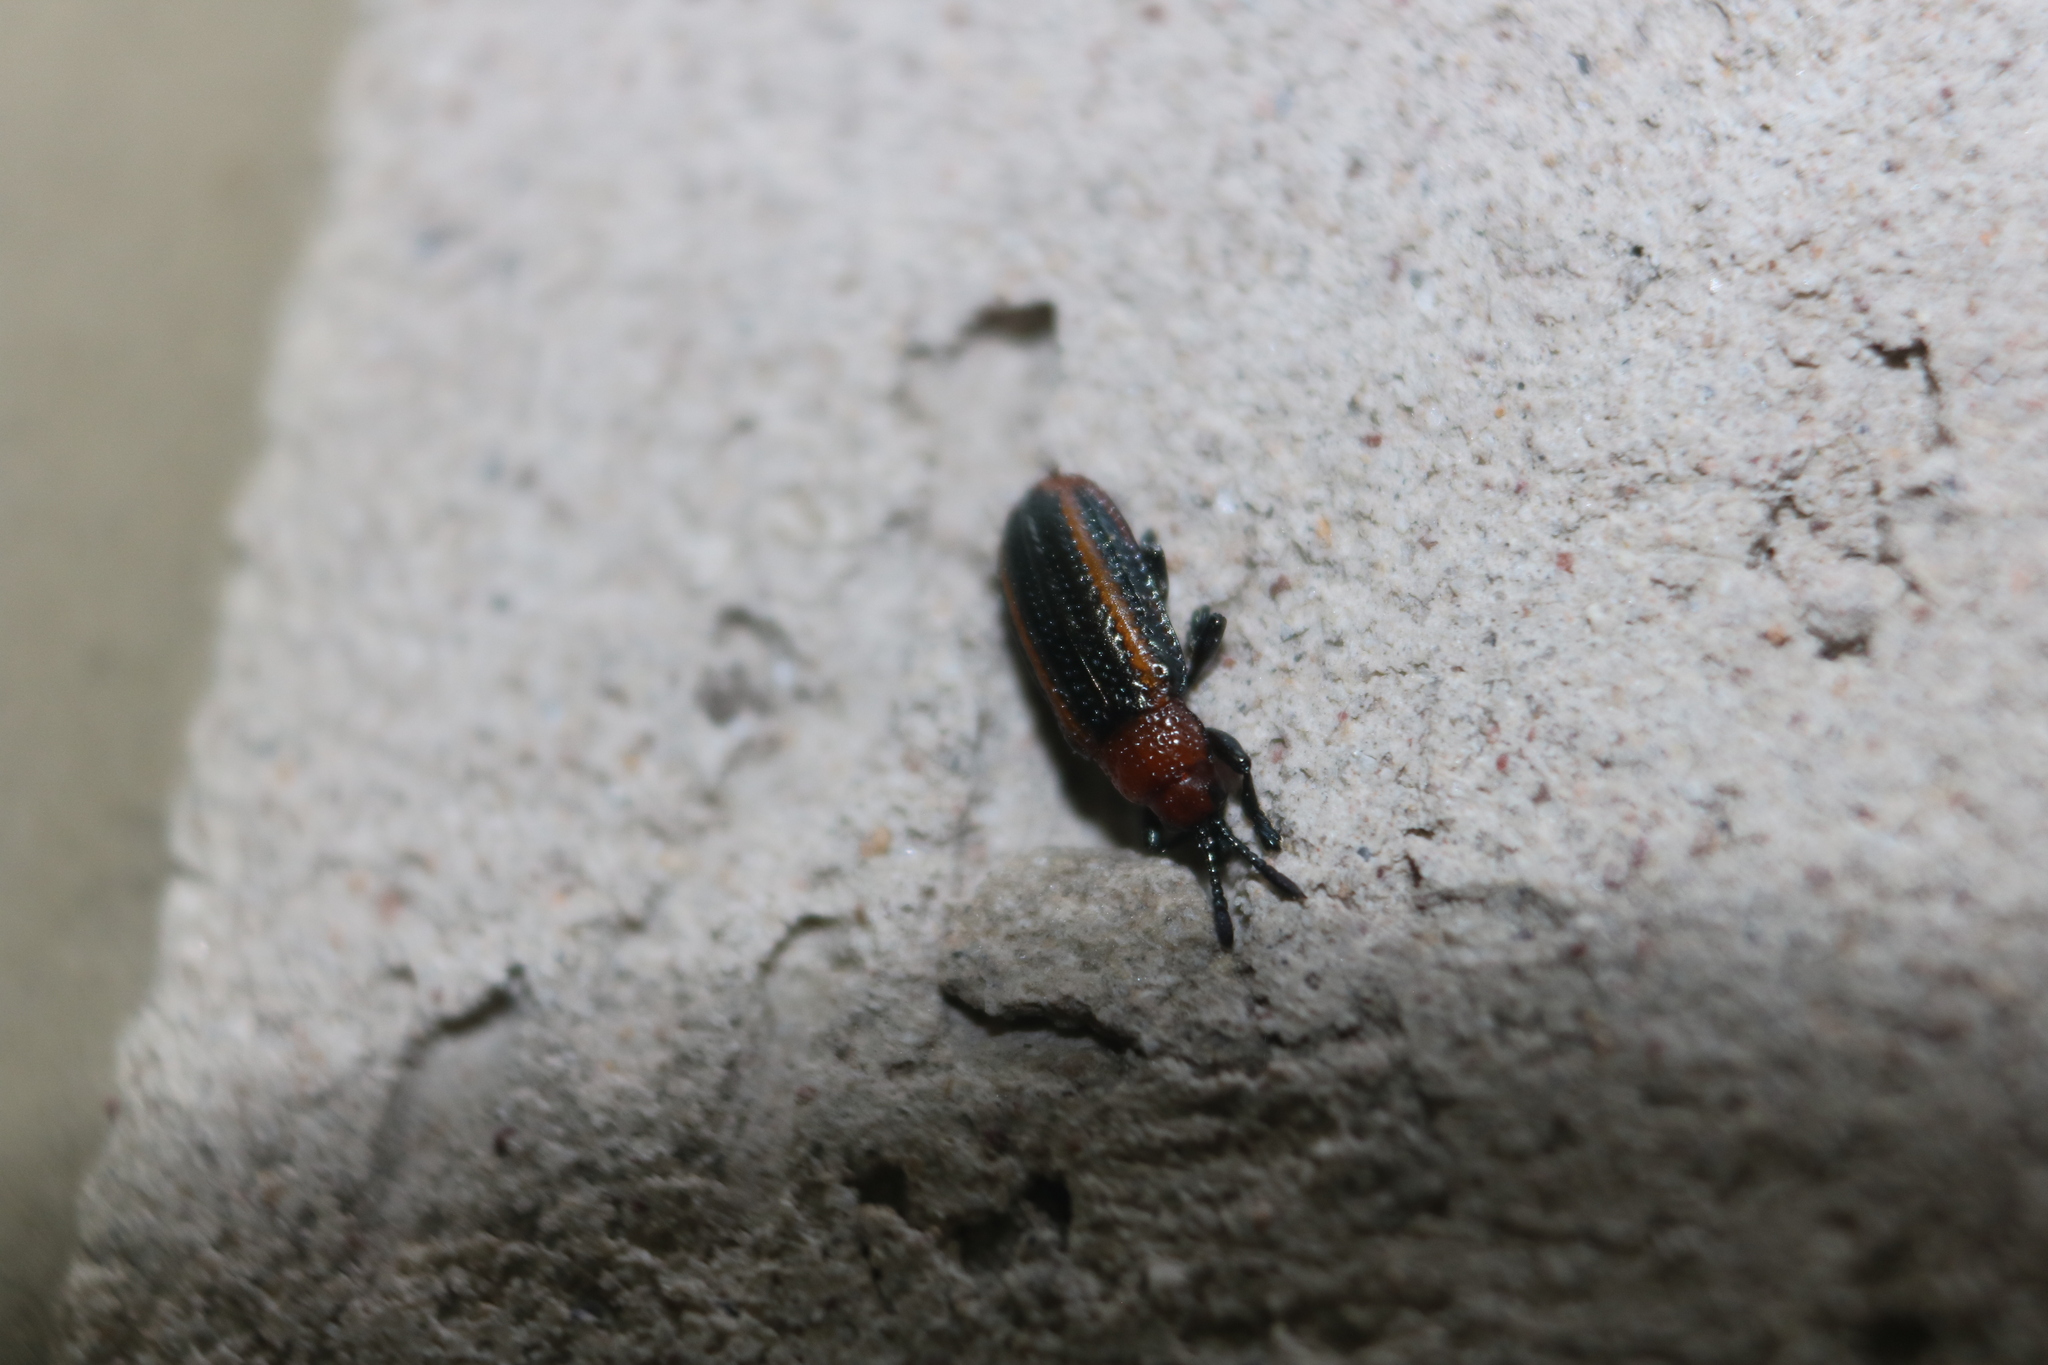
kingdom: Animalia
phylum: Arthropoda
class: Insecta
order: Coleoptera
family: Chrysomelidae
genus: Microrhopala
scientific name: Microrhopala vittata
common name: Goldenrod leaf miner beetle
